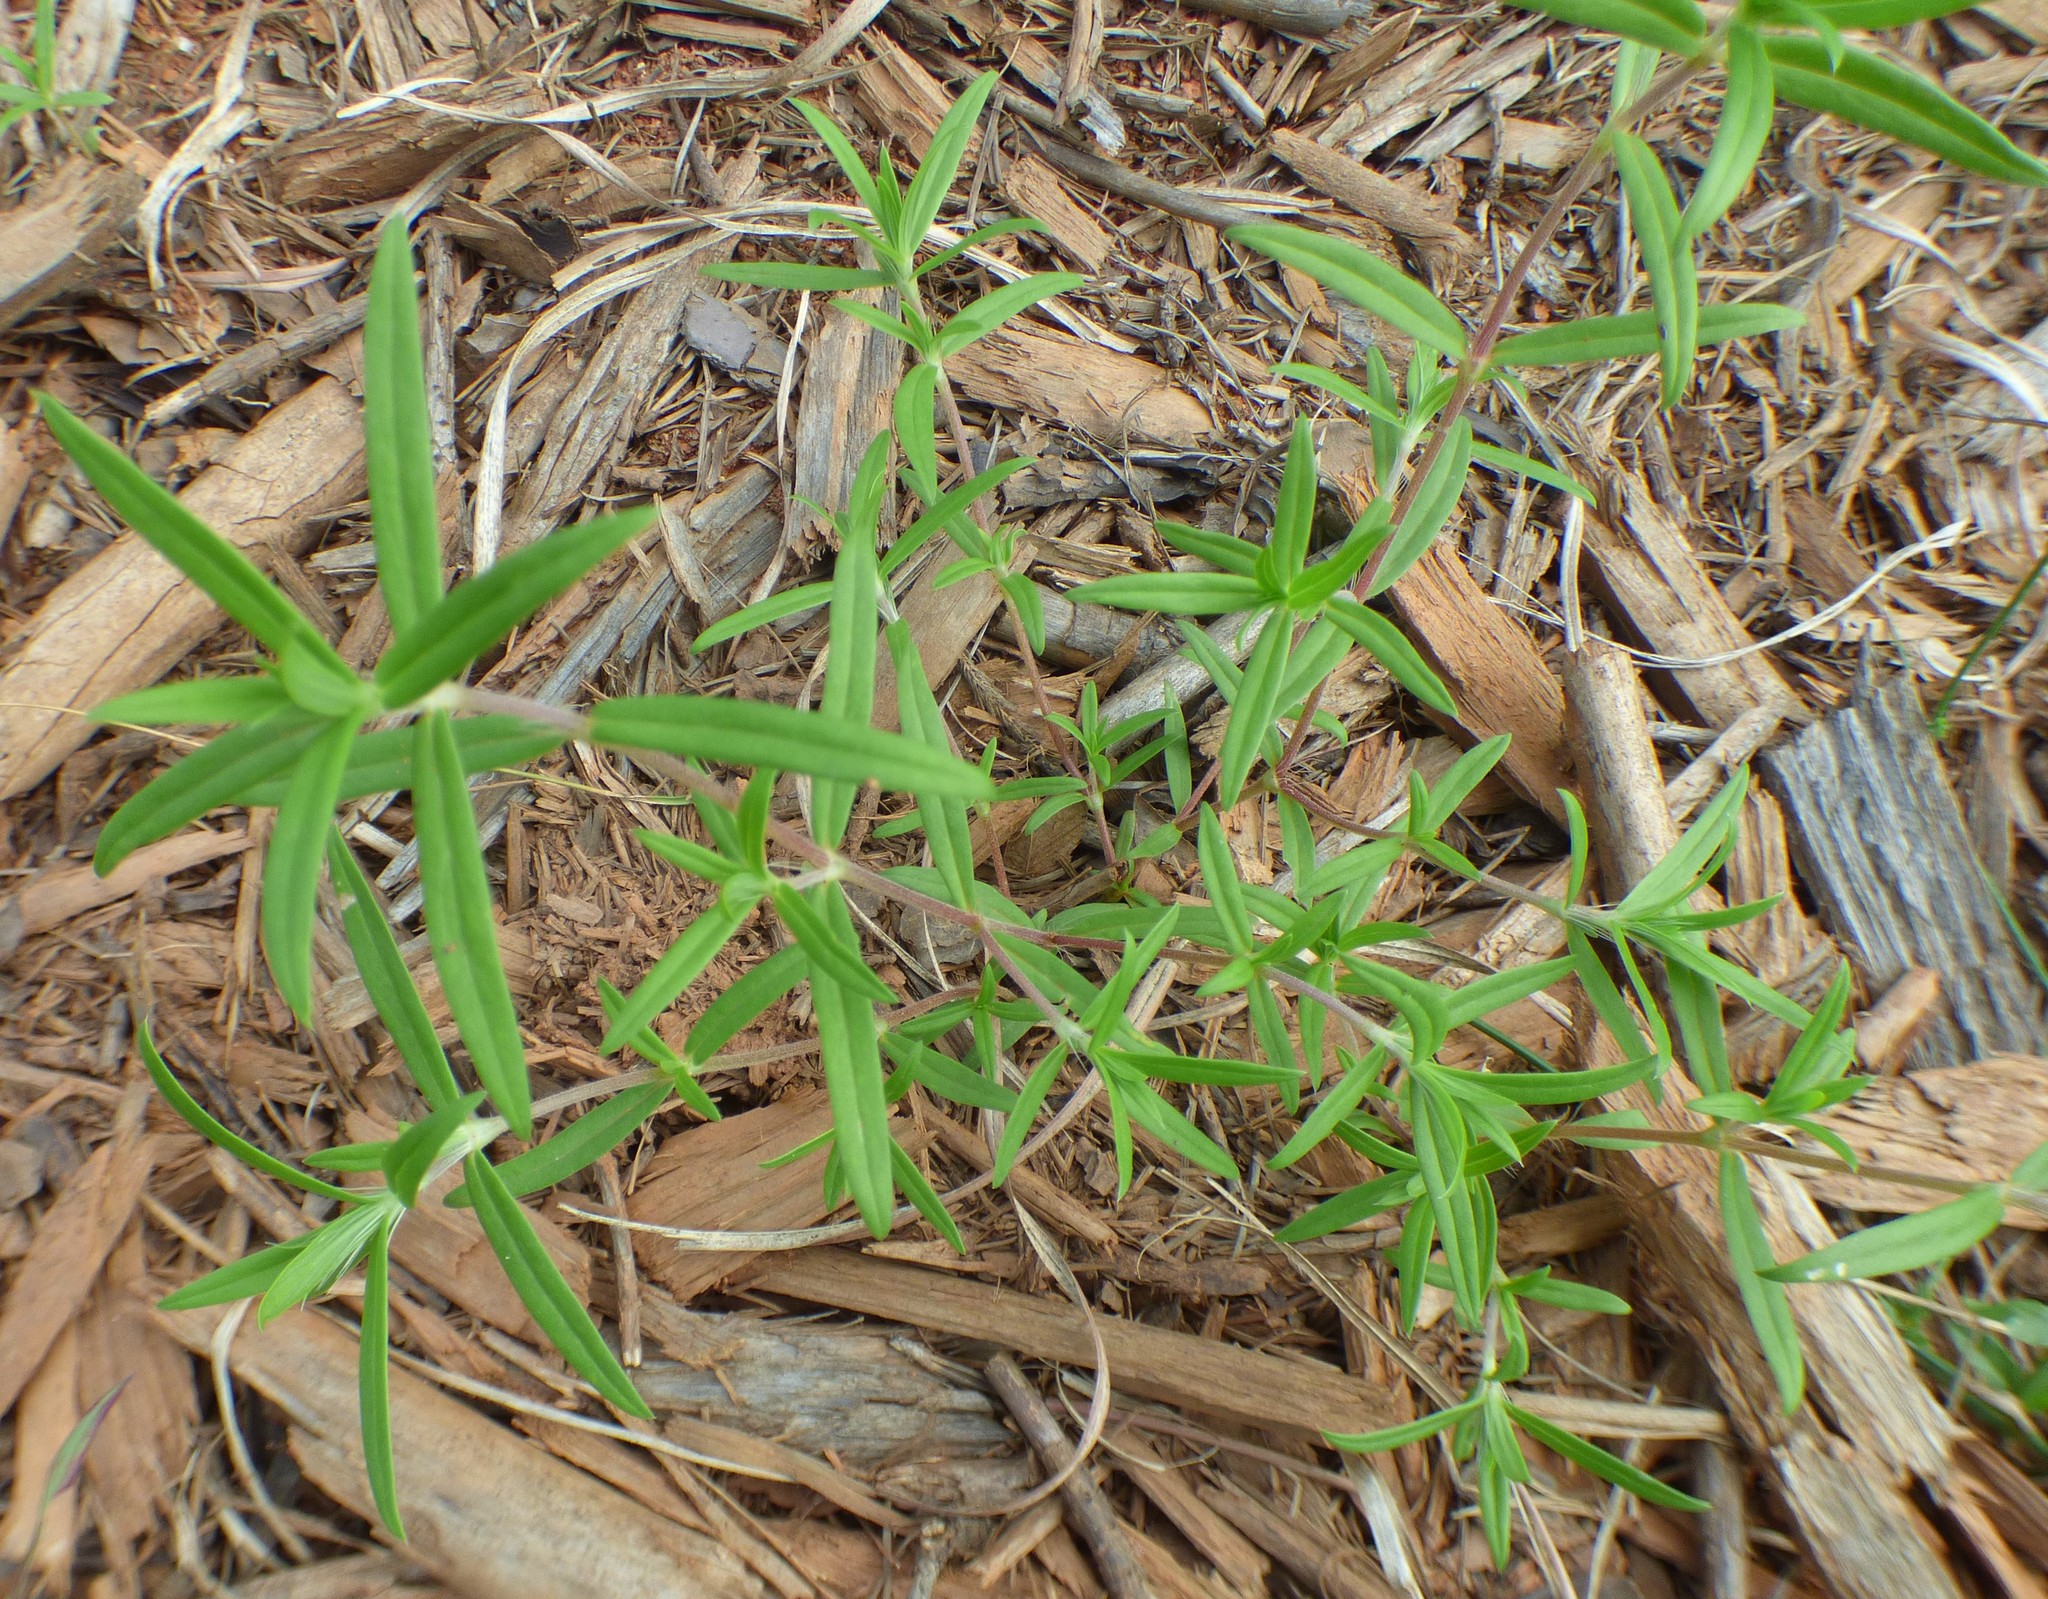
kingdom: Plantae
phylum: Tracheophyta
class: Magnoliopsida
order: Gentianales
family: Rubiaceae
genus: Hexasepalum
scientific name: Hexasepalum teres
